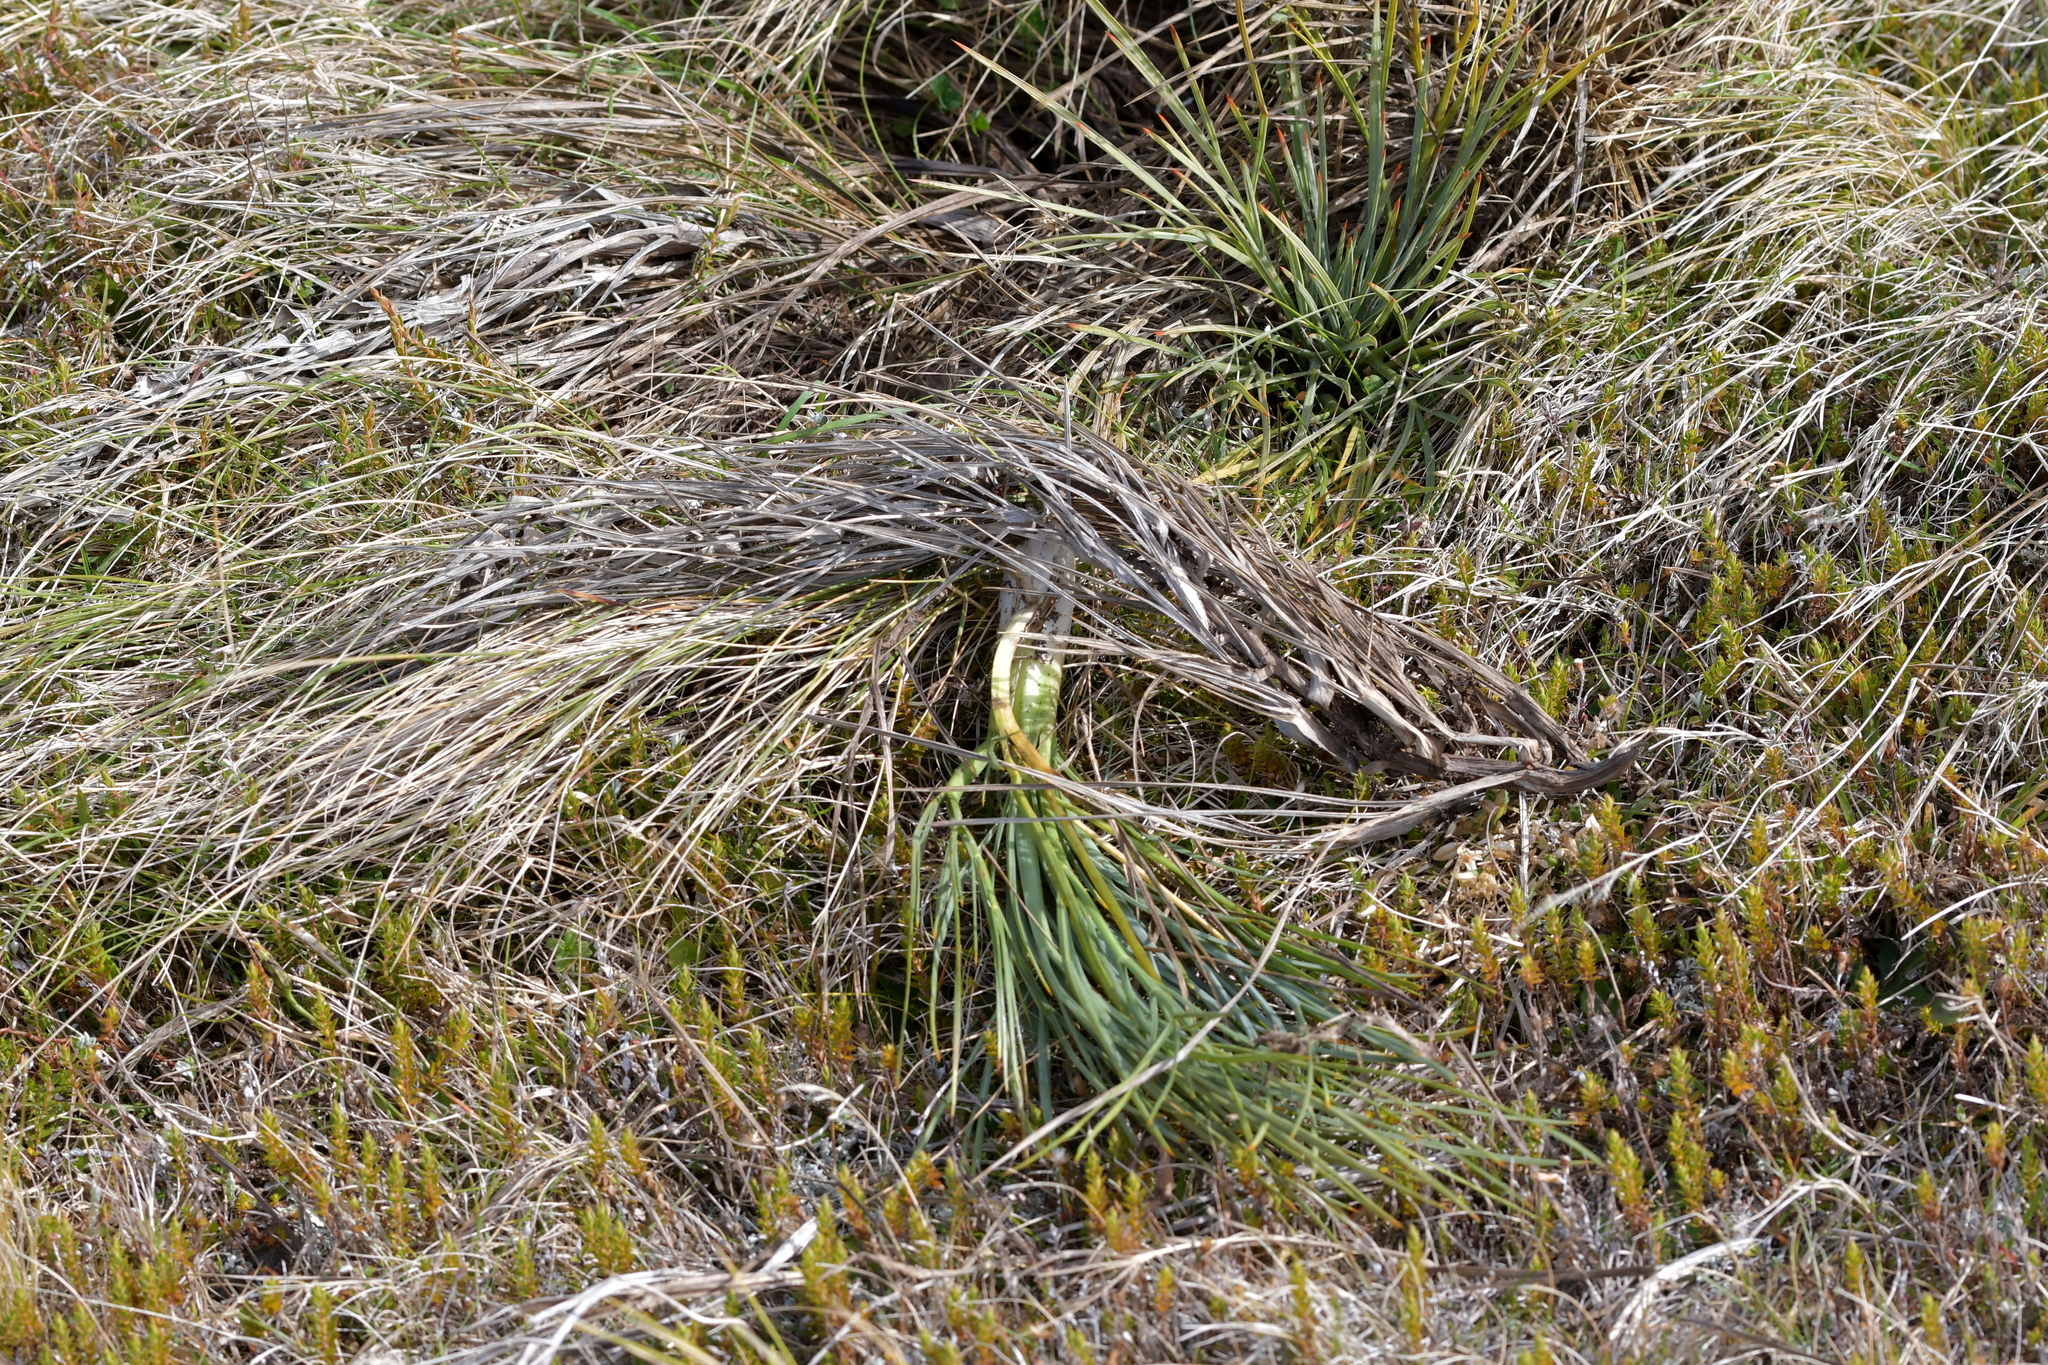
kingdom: Plantae
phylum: Tracheophyta
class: Magnoliopsida
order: Apiales
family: Apiaceae
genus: Aciphylla
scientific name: Aciphylla squarrosa
